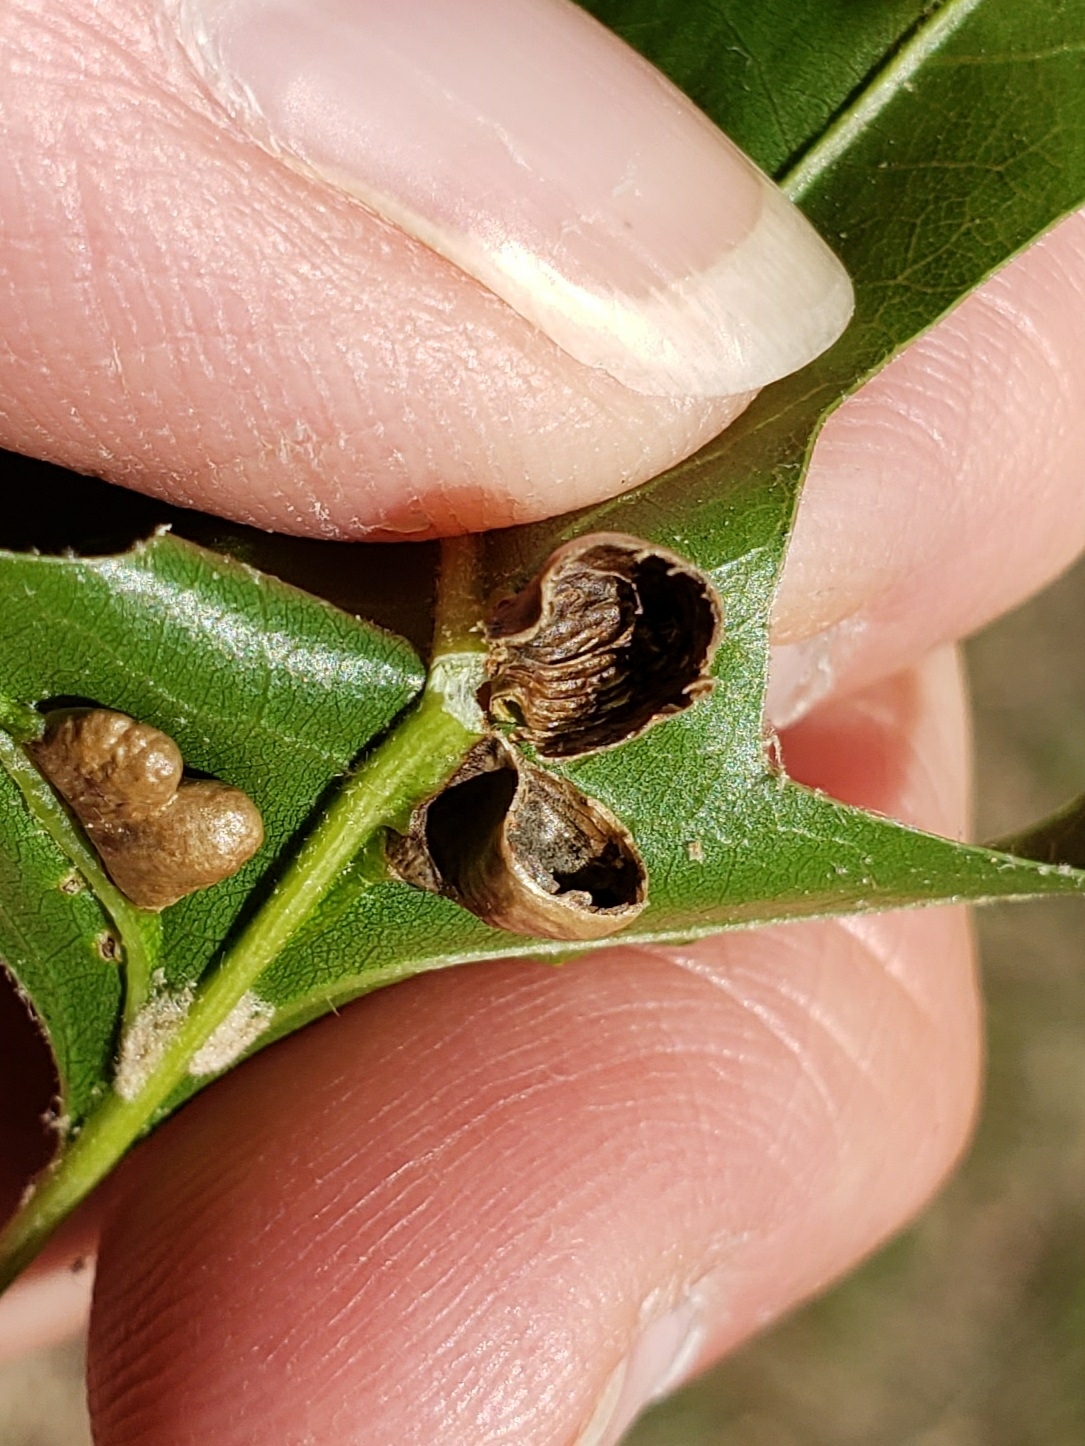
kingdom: Animalia
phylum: Arthropoda
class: Insecta
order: Diptera
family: Cecidomyiidae
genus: Macrodiplosis
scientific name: Macrodiplosis majalis
